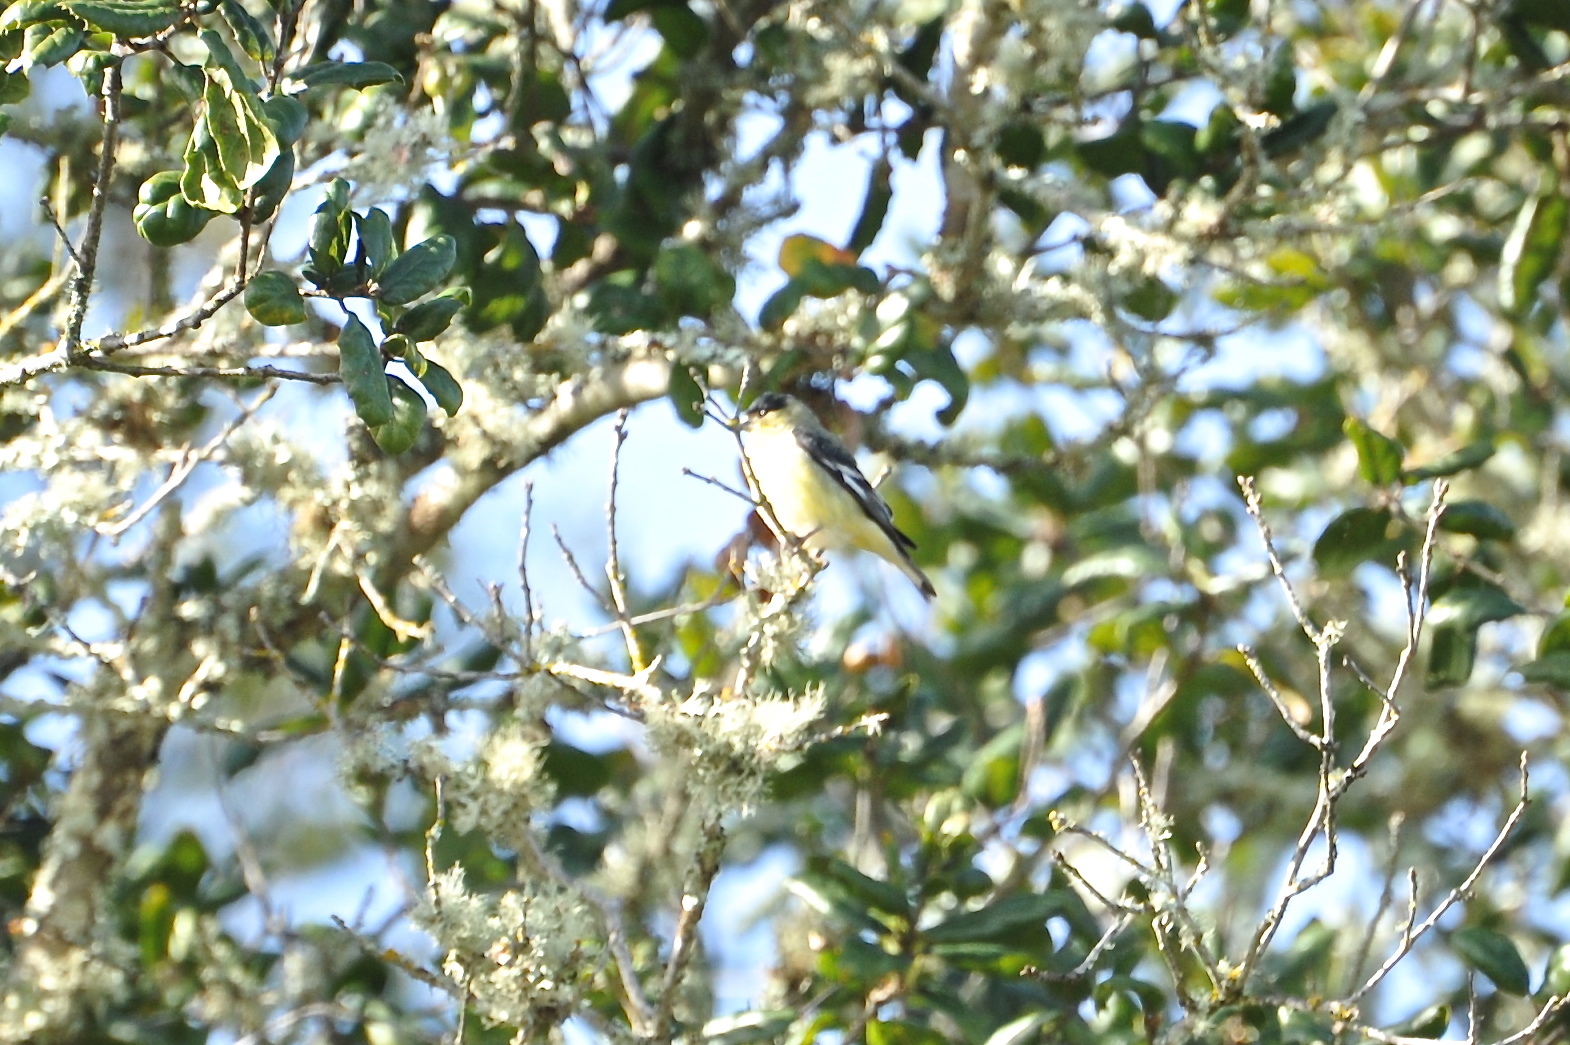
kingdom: Animalia
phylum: Chordata
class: Aves
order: Passeriformes
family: Fringillidae
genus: Spinus
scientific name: Spinus psaltria
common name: Lesser goldfinch
